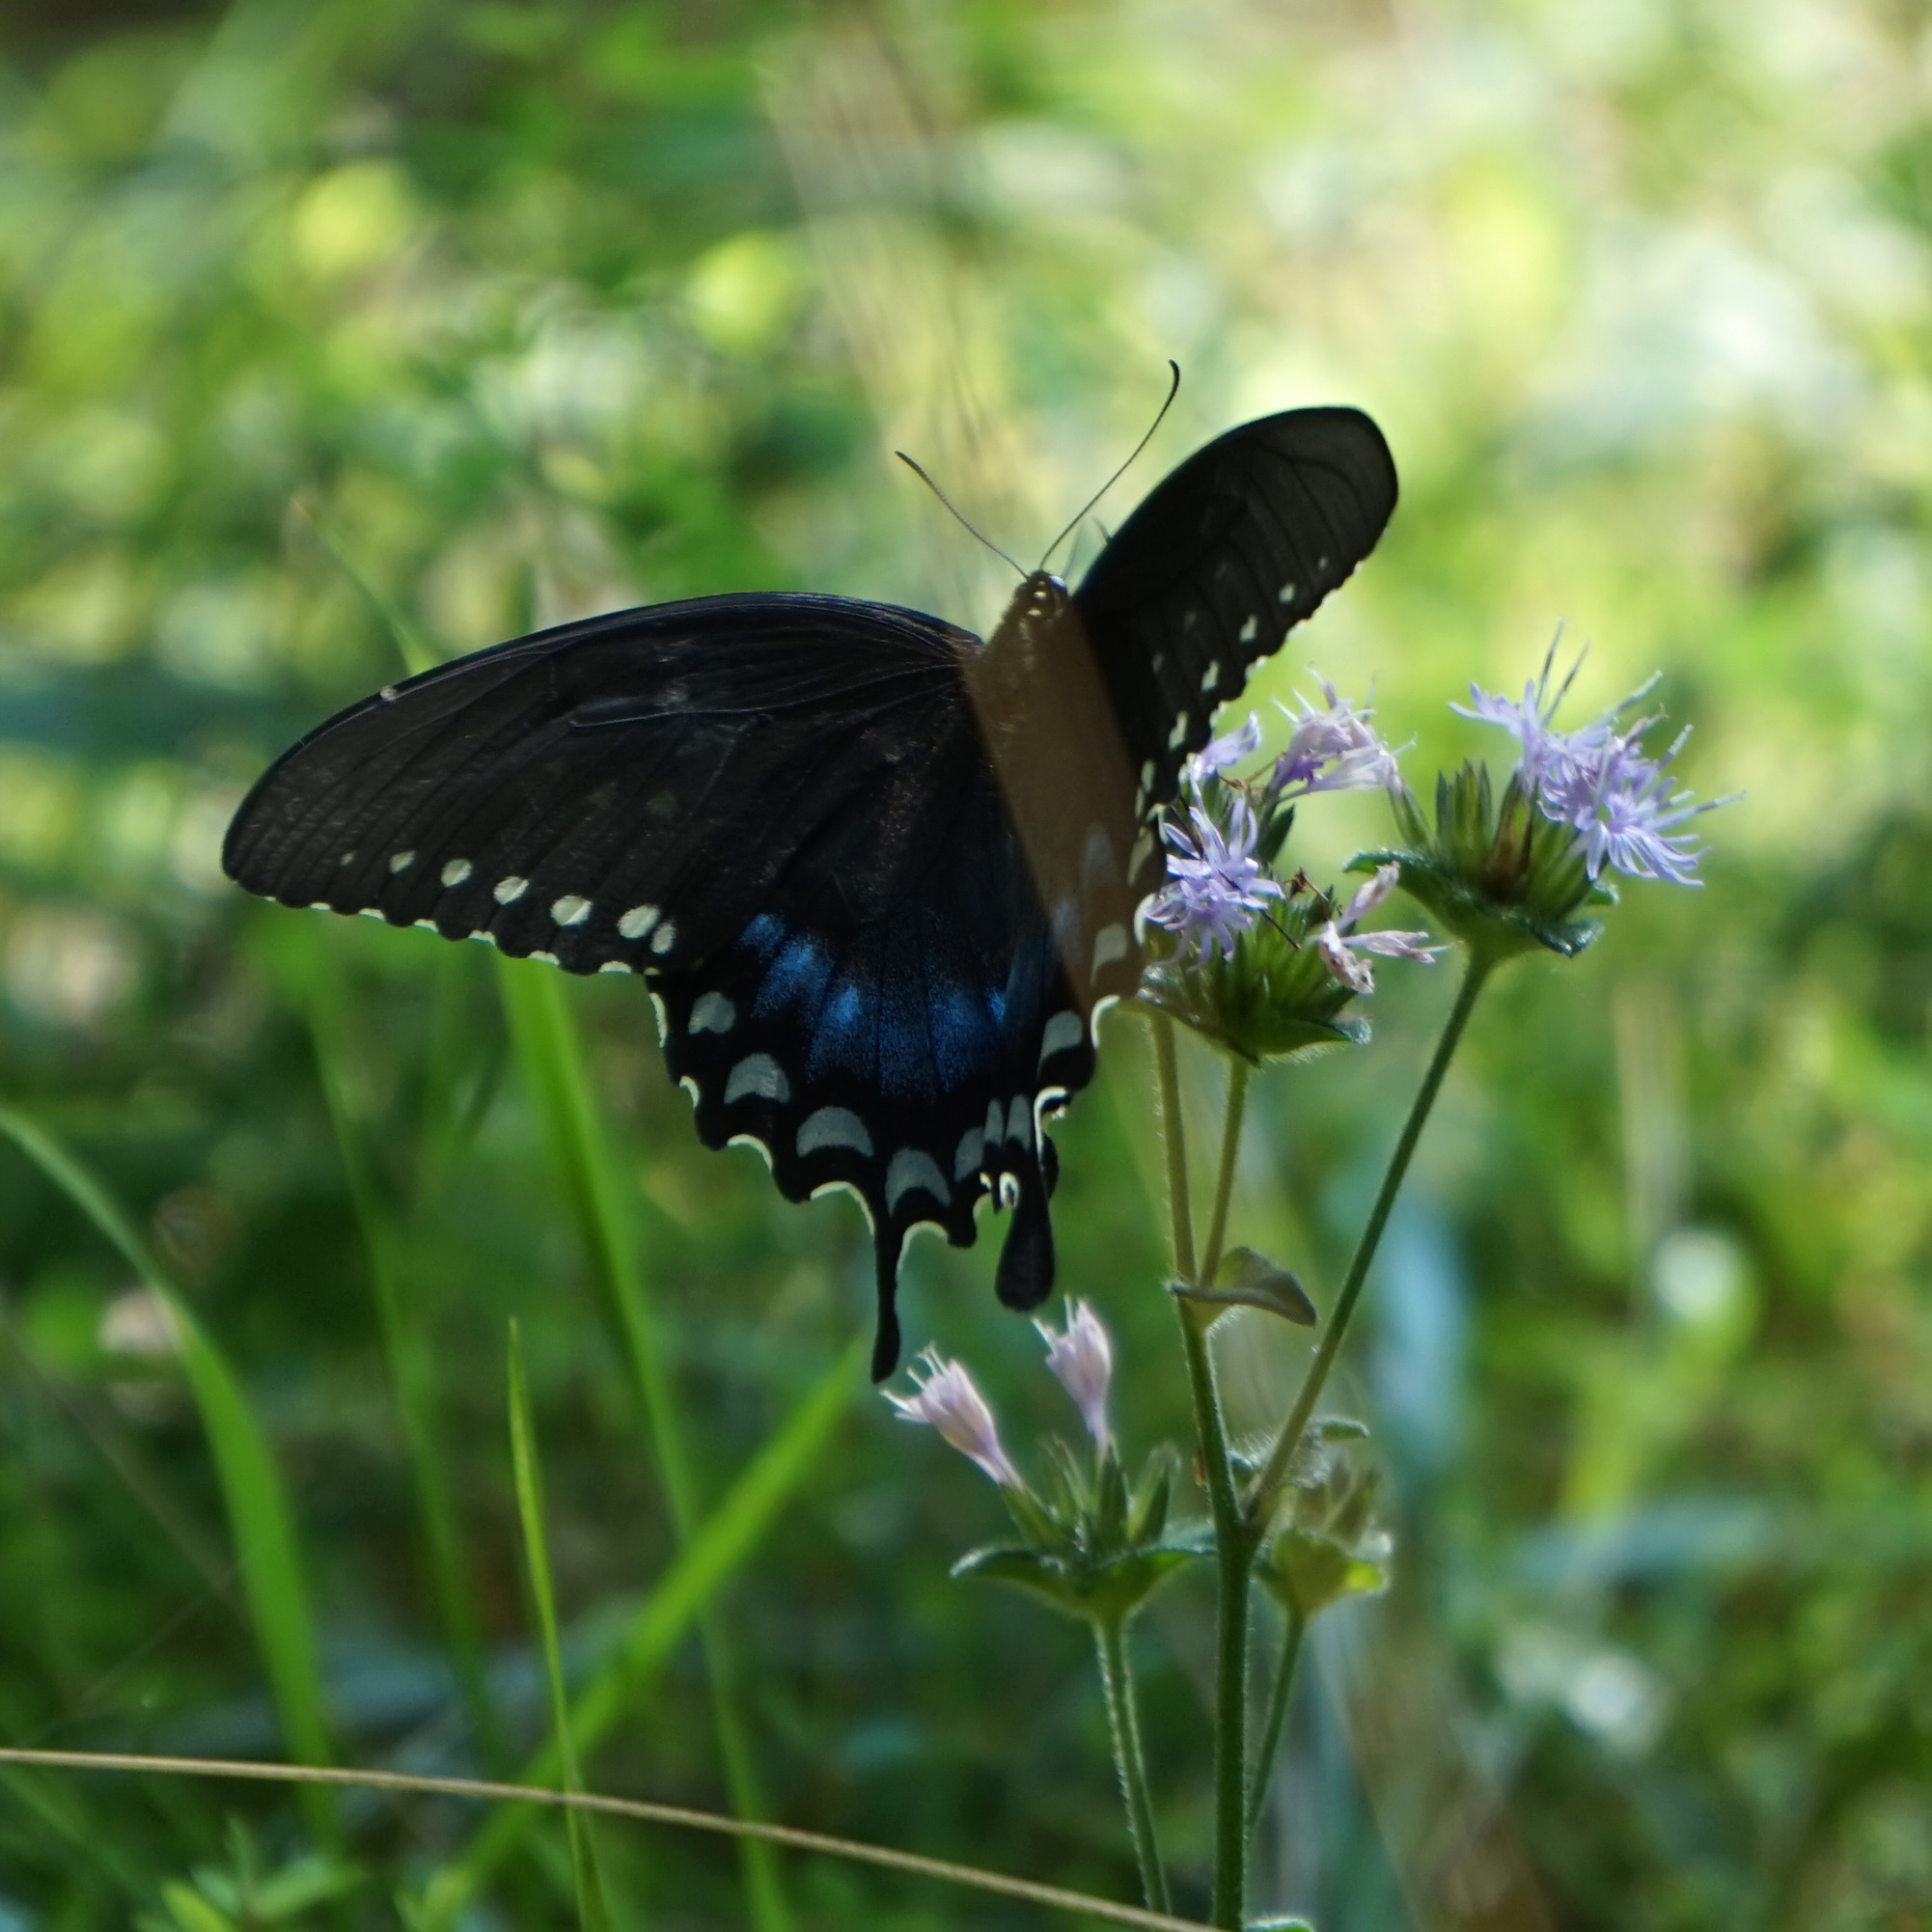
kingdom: Animalia
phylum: Arthropoda
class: Insecta
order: Lepidoptera
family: Papilionidae
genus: Papilio
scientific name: Papilio troilus
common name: Spicebush swallowtail
